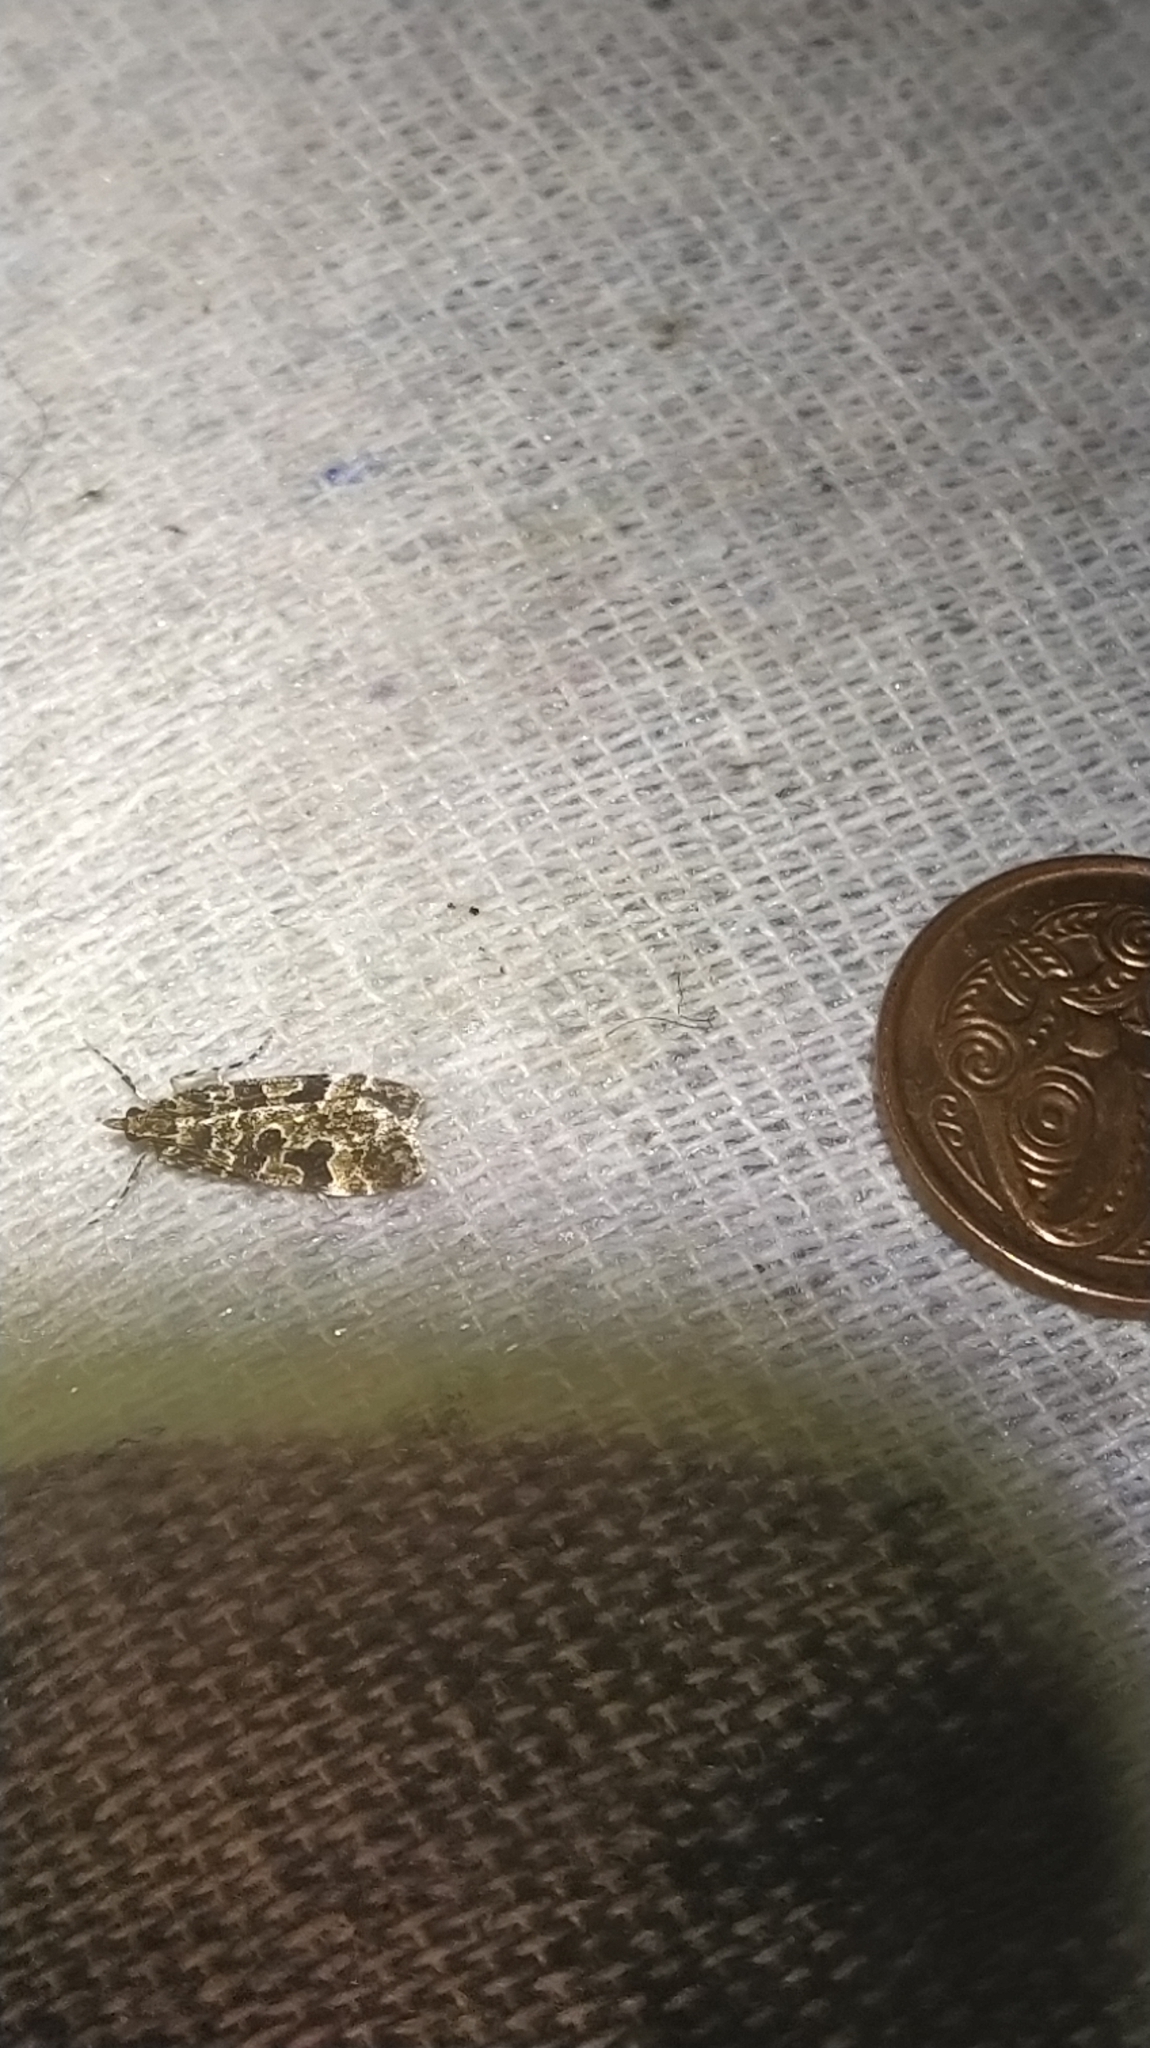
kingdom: Animalia
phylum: Arthropoda
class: Insecta
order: Lepidoptera
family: Crambidae
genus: Scoparia
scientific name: Scoparia ustimacula
